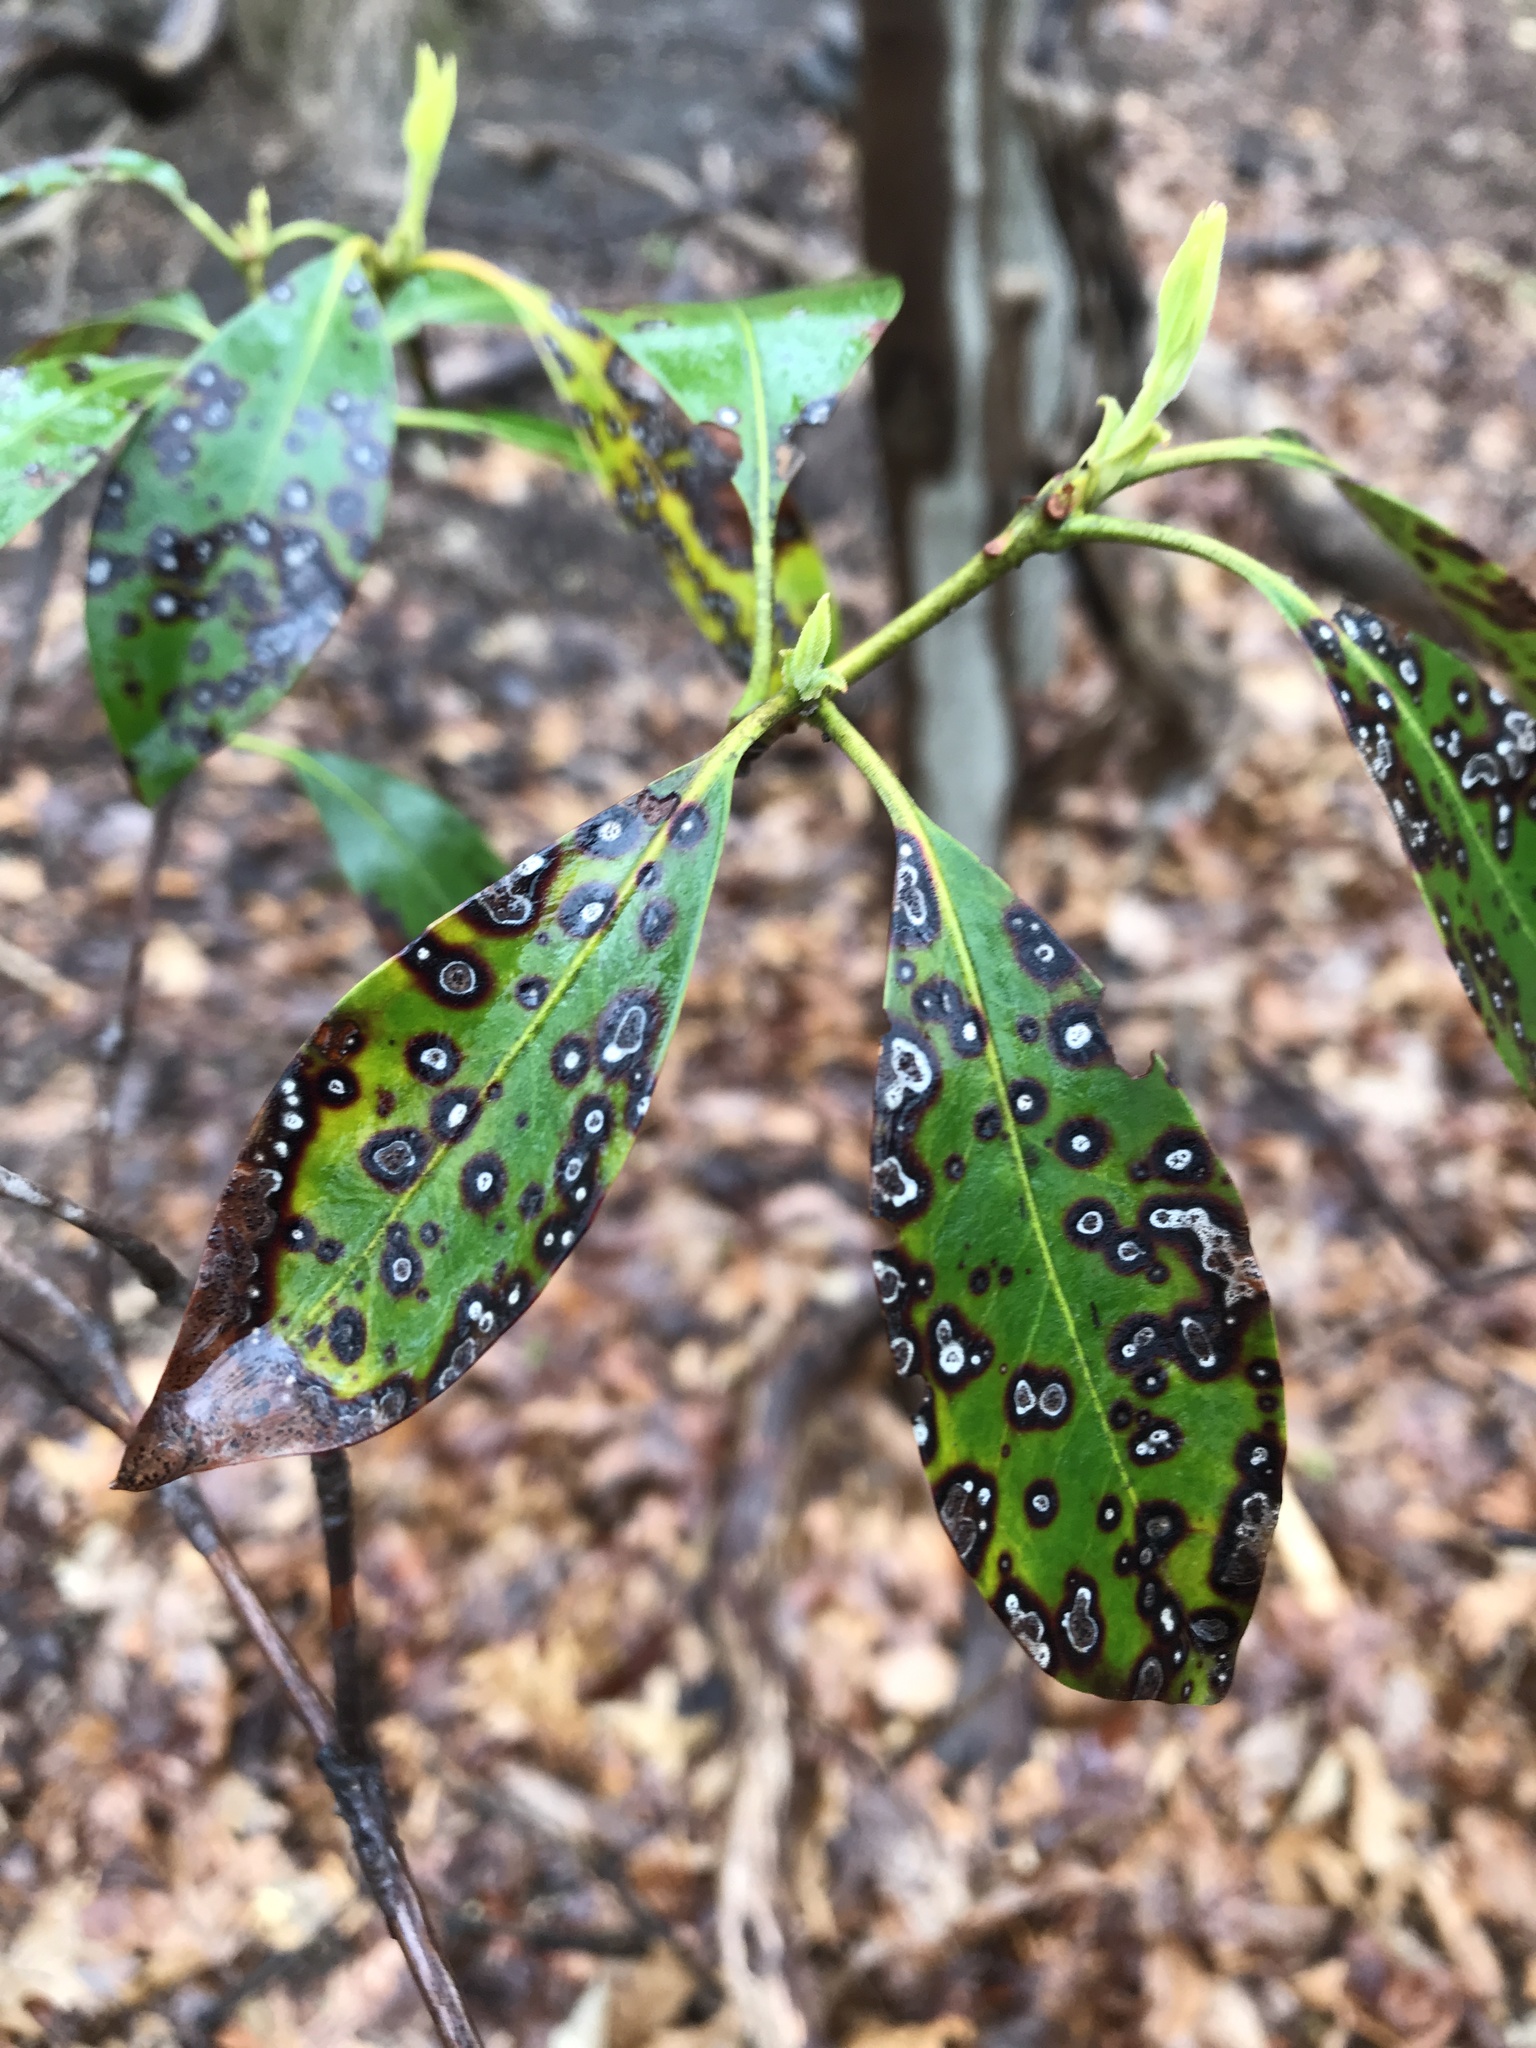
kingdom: Fungi
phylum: Ascomycota
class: Dothideomycetes
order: Mycosphaerellales
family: Mycosphaerellaceae
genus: Mycosphaerella
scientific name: Mycosphaerella colorata
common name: Mountain laurel leaf spot
